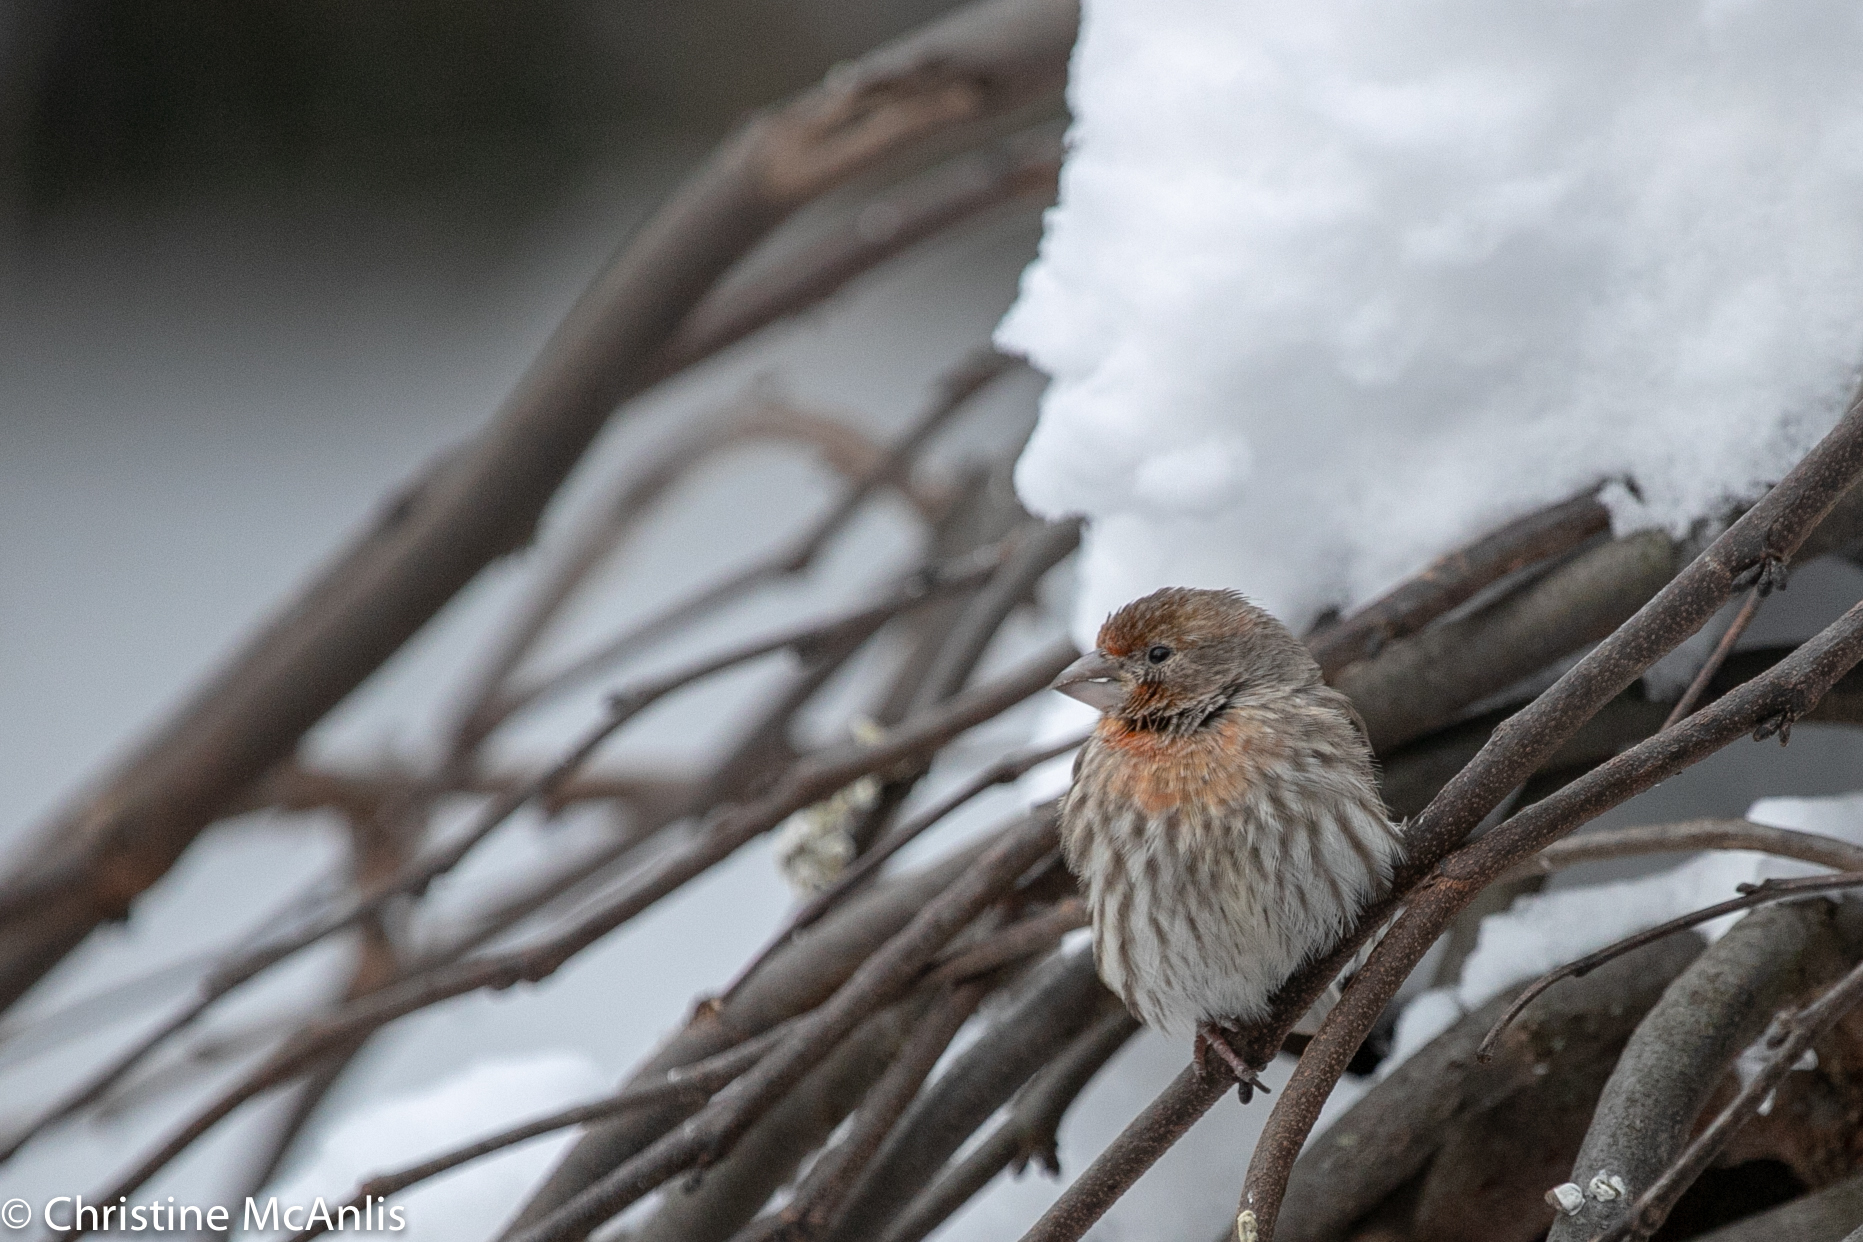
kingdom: Animalia
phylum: Chordata
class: Aves
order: Passeriformes
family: Fringillidae
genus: Haemorhous
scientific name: Haemorhous mexicanus
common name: House finch
